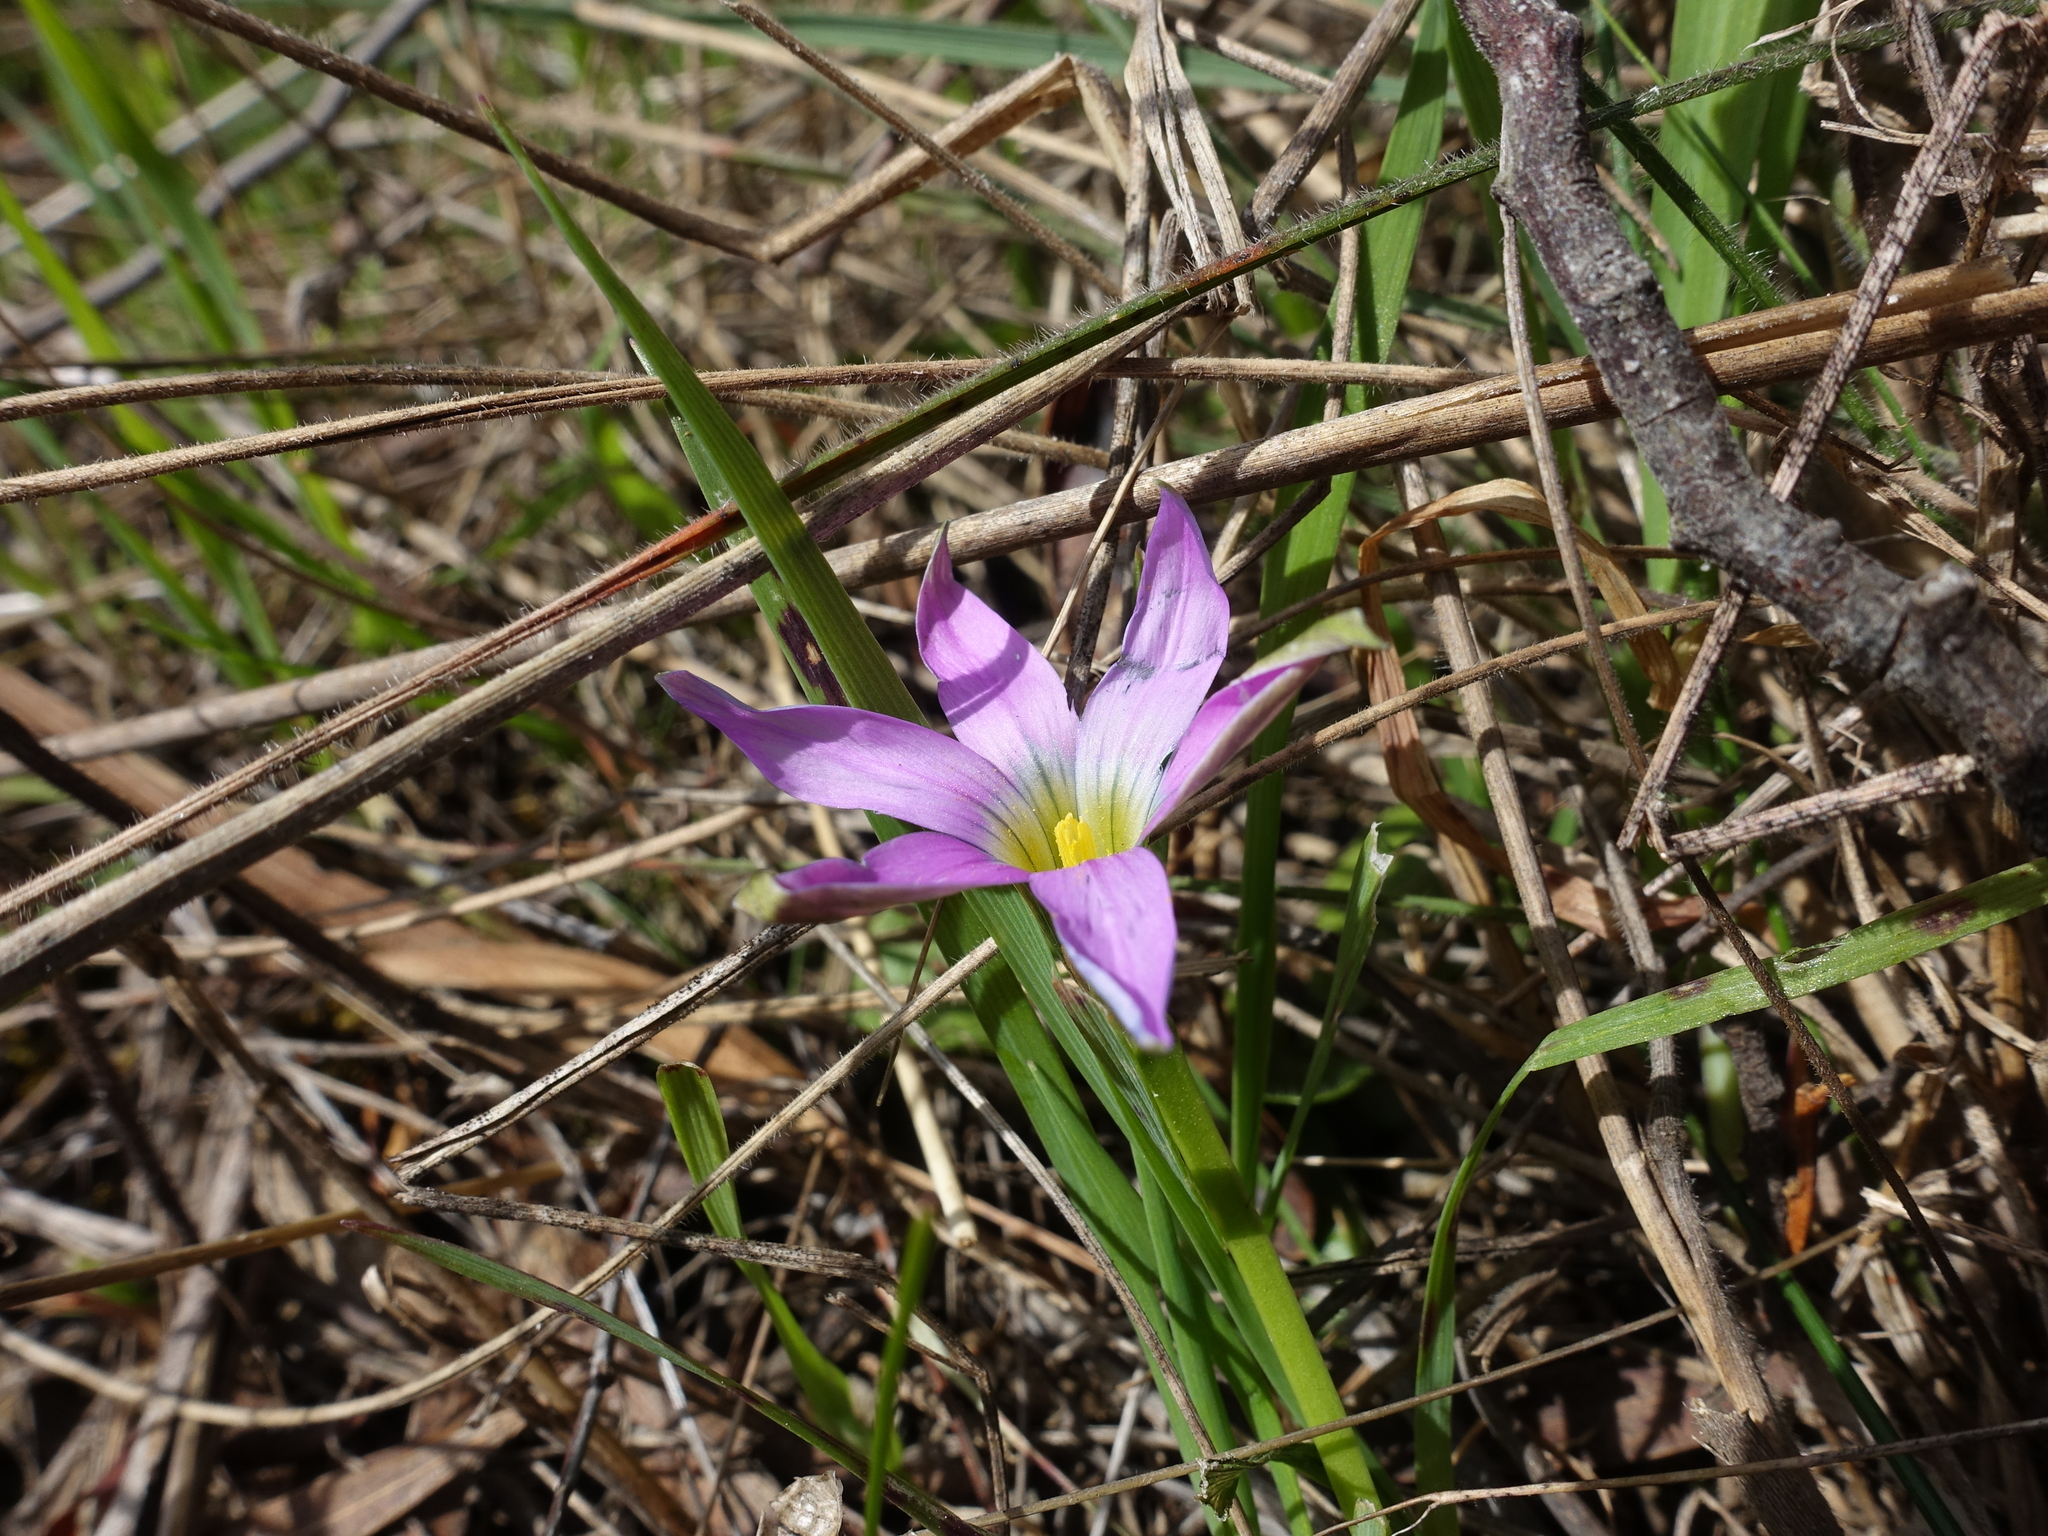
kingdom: Plantae
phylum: Tracheophyta
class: Liliopsida
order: Asparagales
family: Iridaceae
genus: Romulea
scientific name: Romulea rosea
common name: Oniongrass
